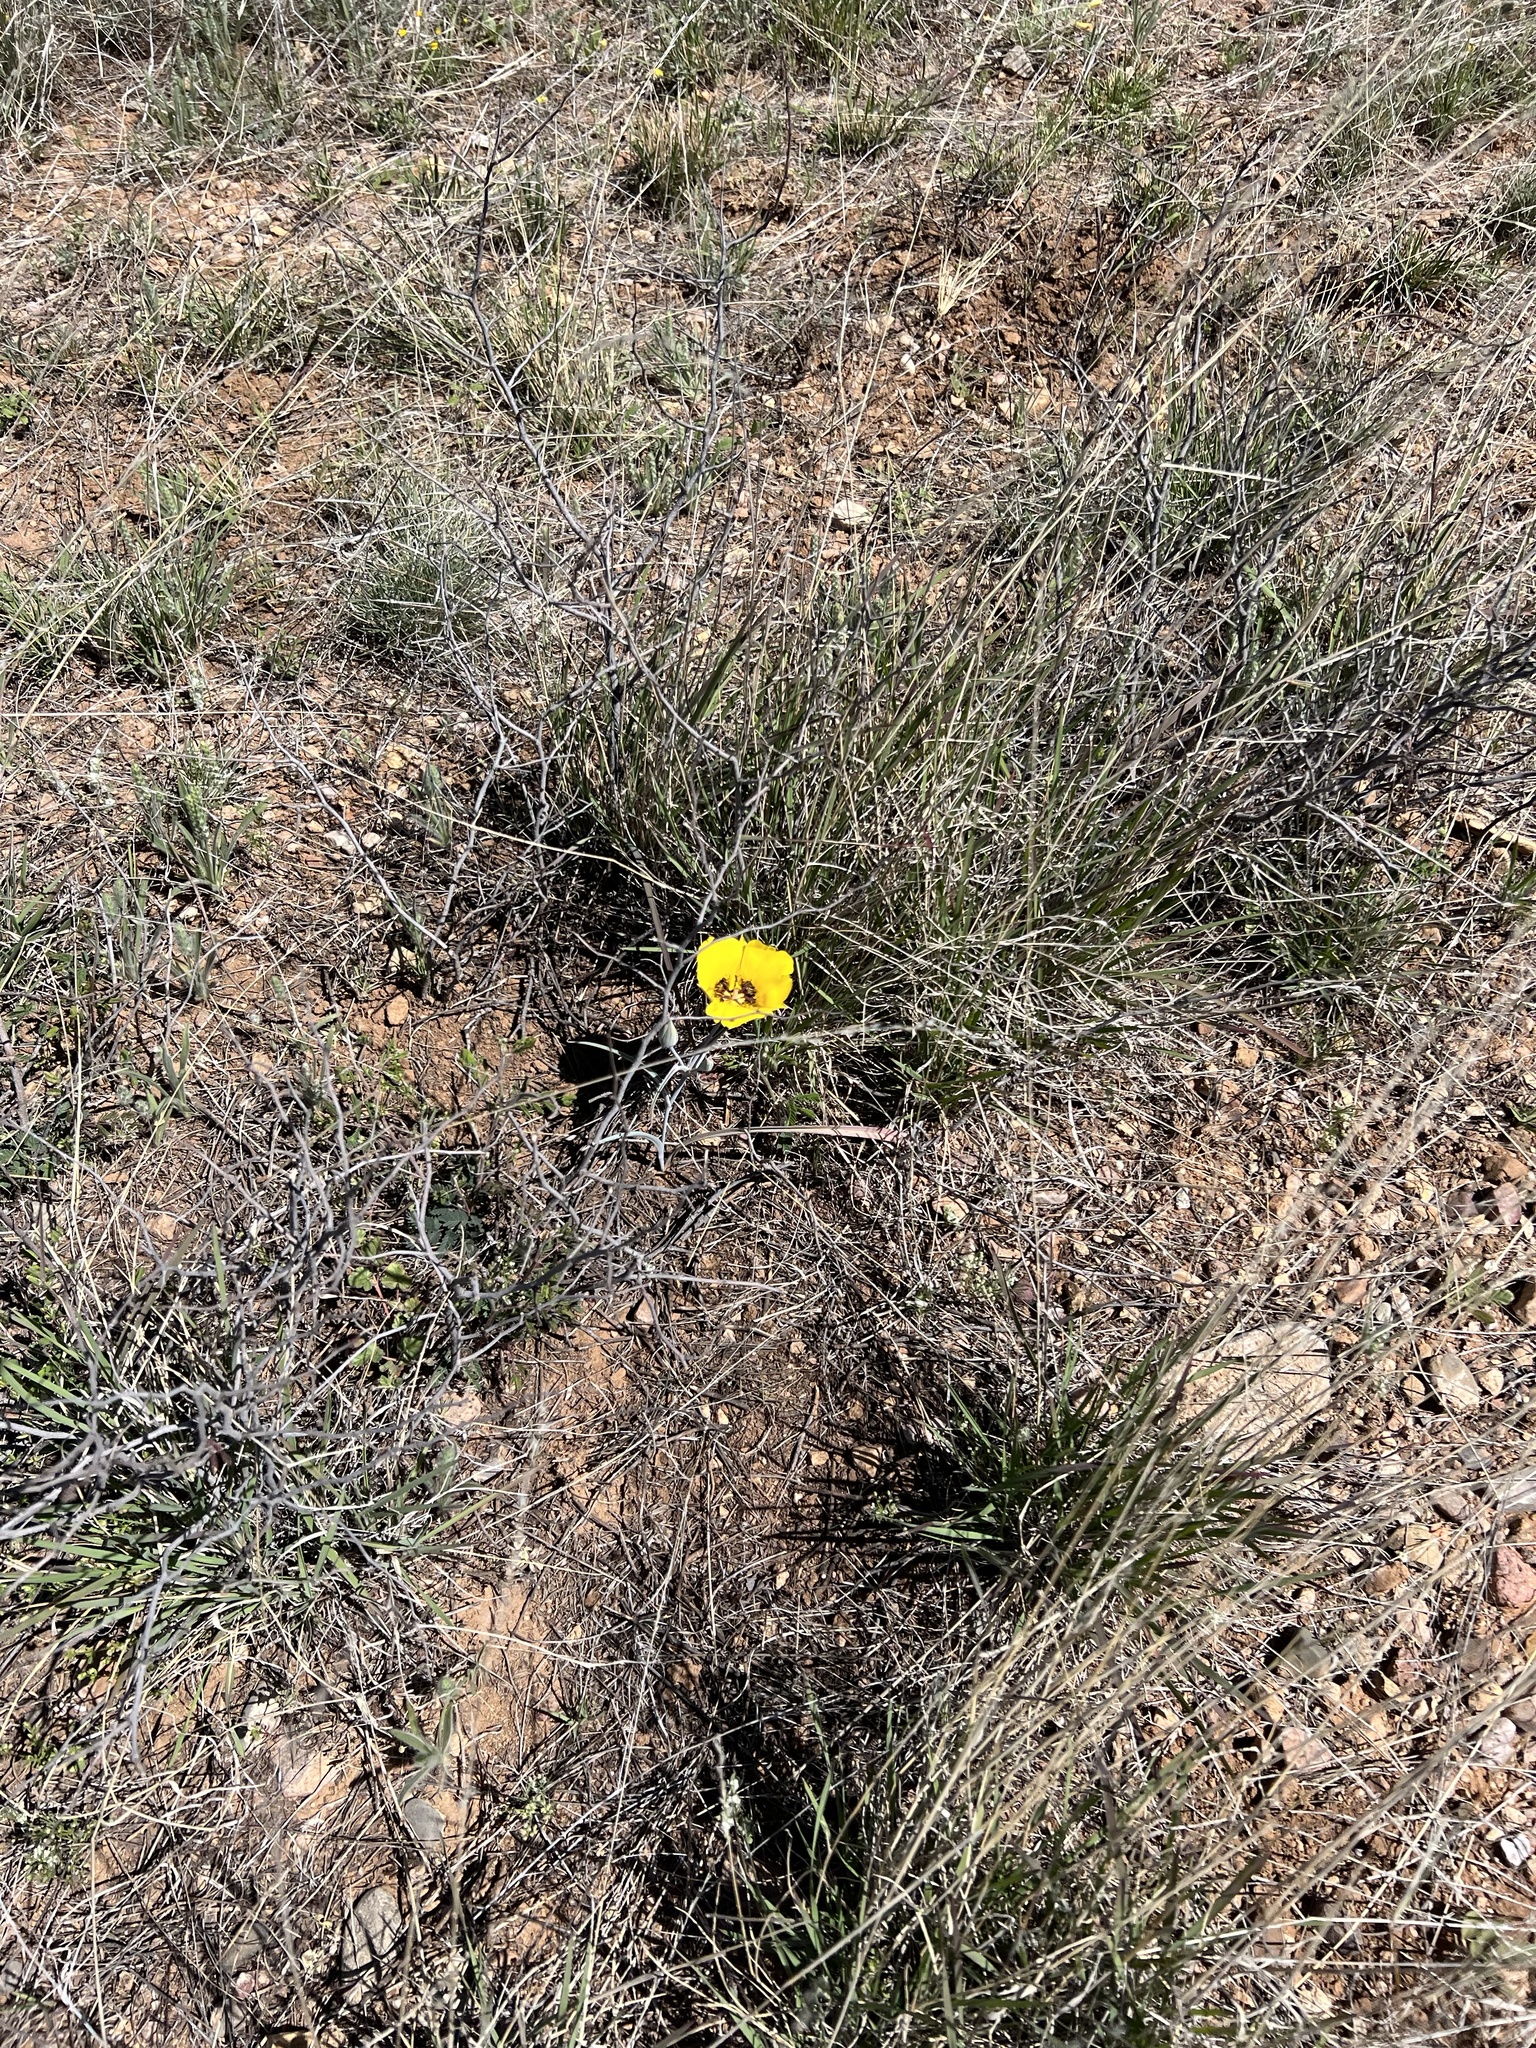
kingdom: Plantae
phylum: Tracheophyta
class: Liliopsida
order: Liliales
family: Liliaceae
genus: Calochortus
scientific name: Calochortus kennedyi
